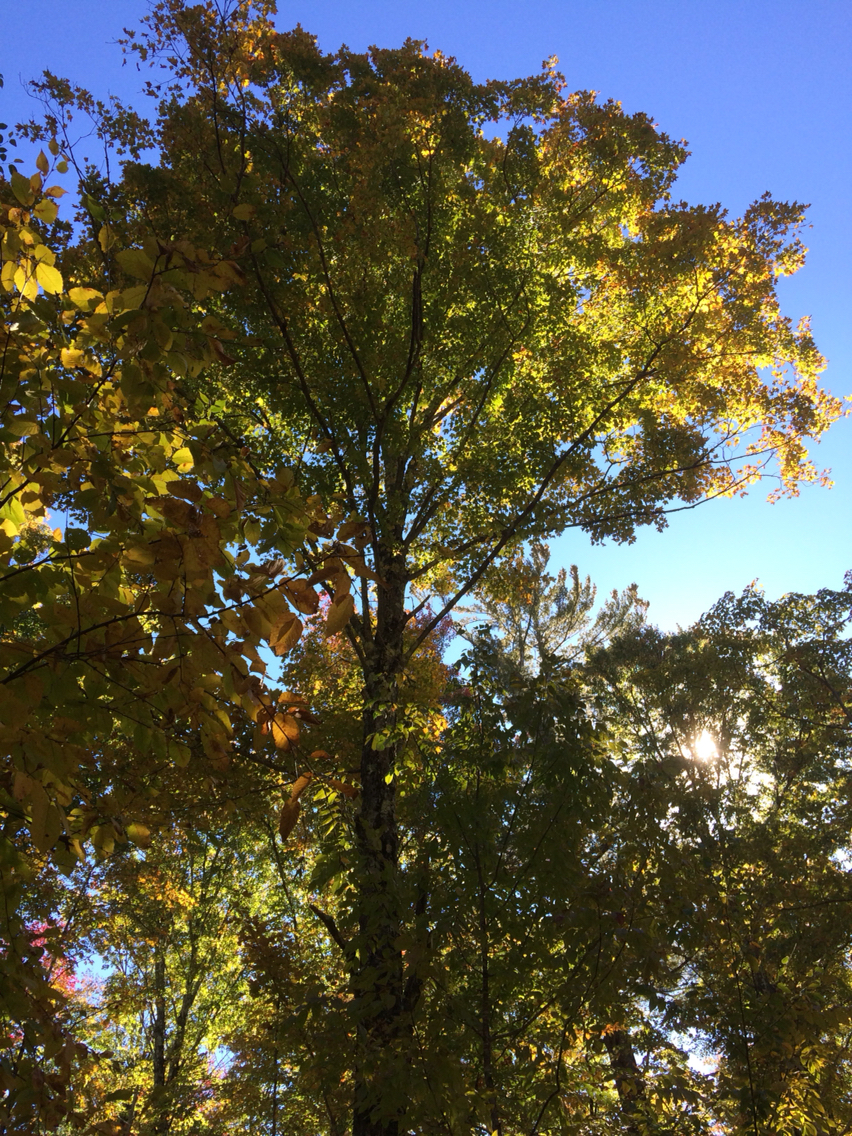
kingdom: Plantae
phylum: Tracheophyta
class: Magnoliopsida
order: Sapindales
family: Sapindaceae
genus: Acer
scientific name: Acer saccharum
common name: Sugar maple
